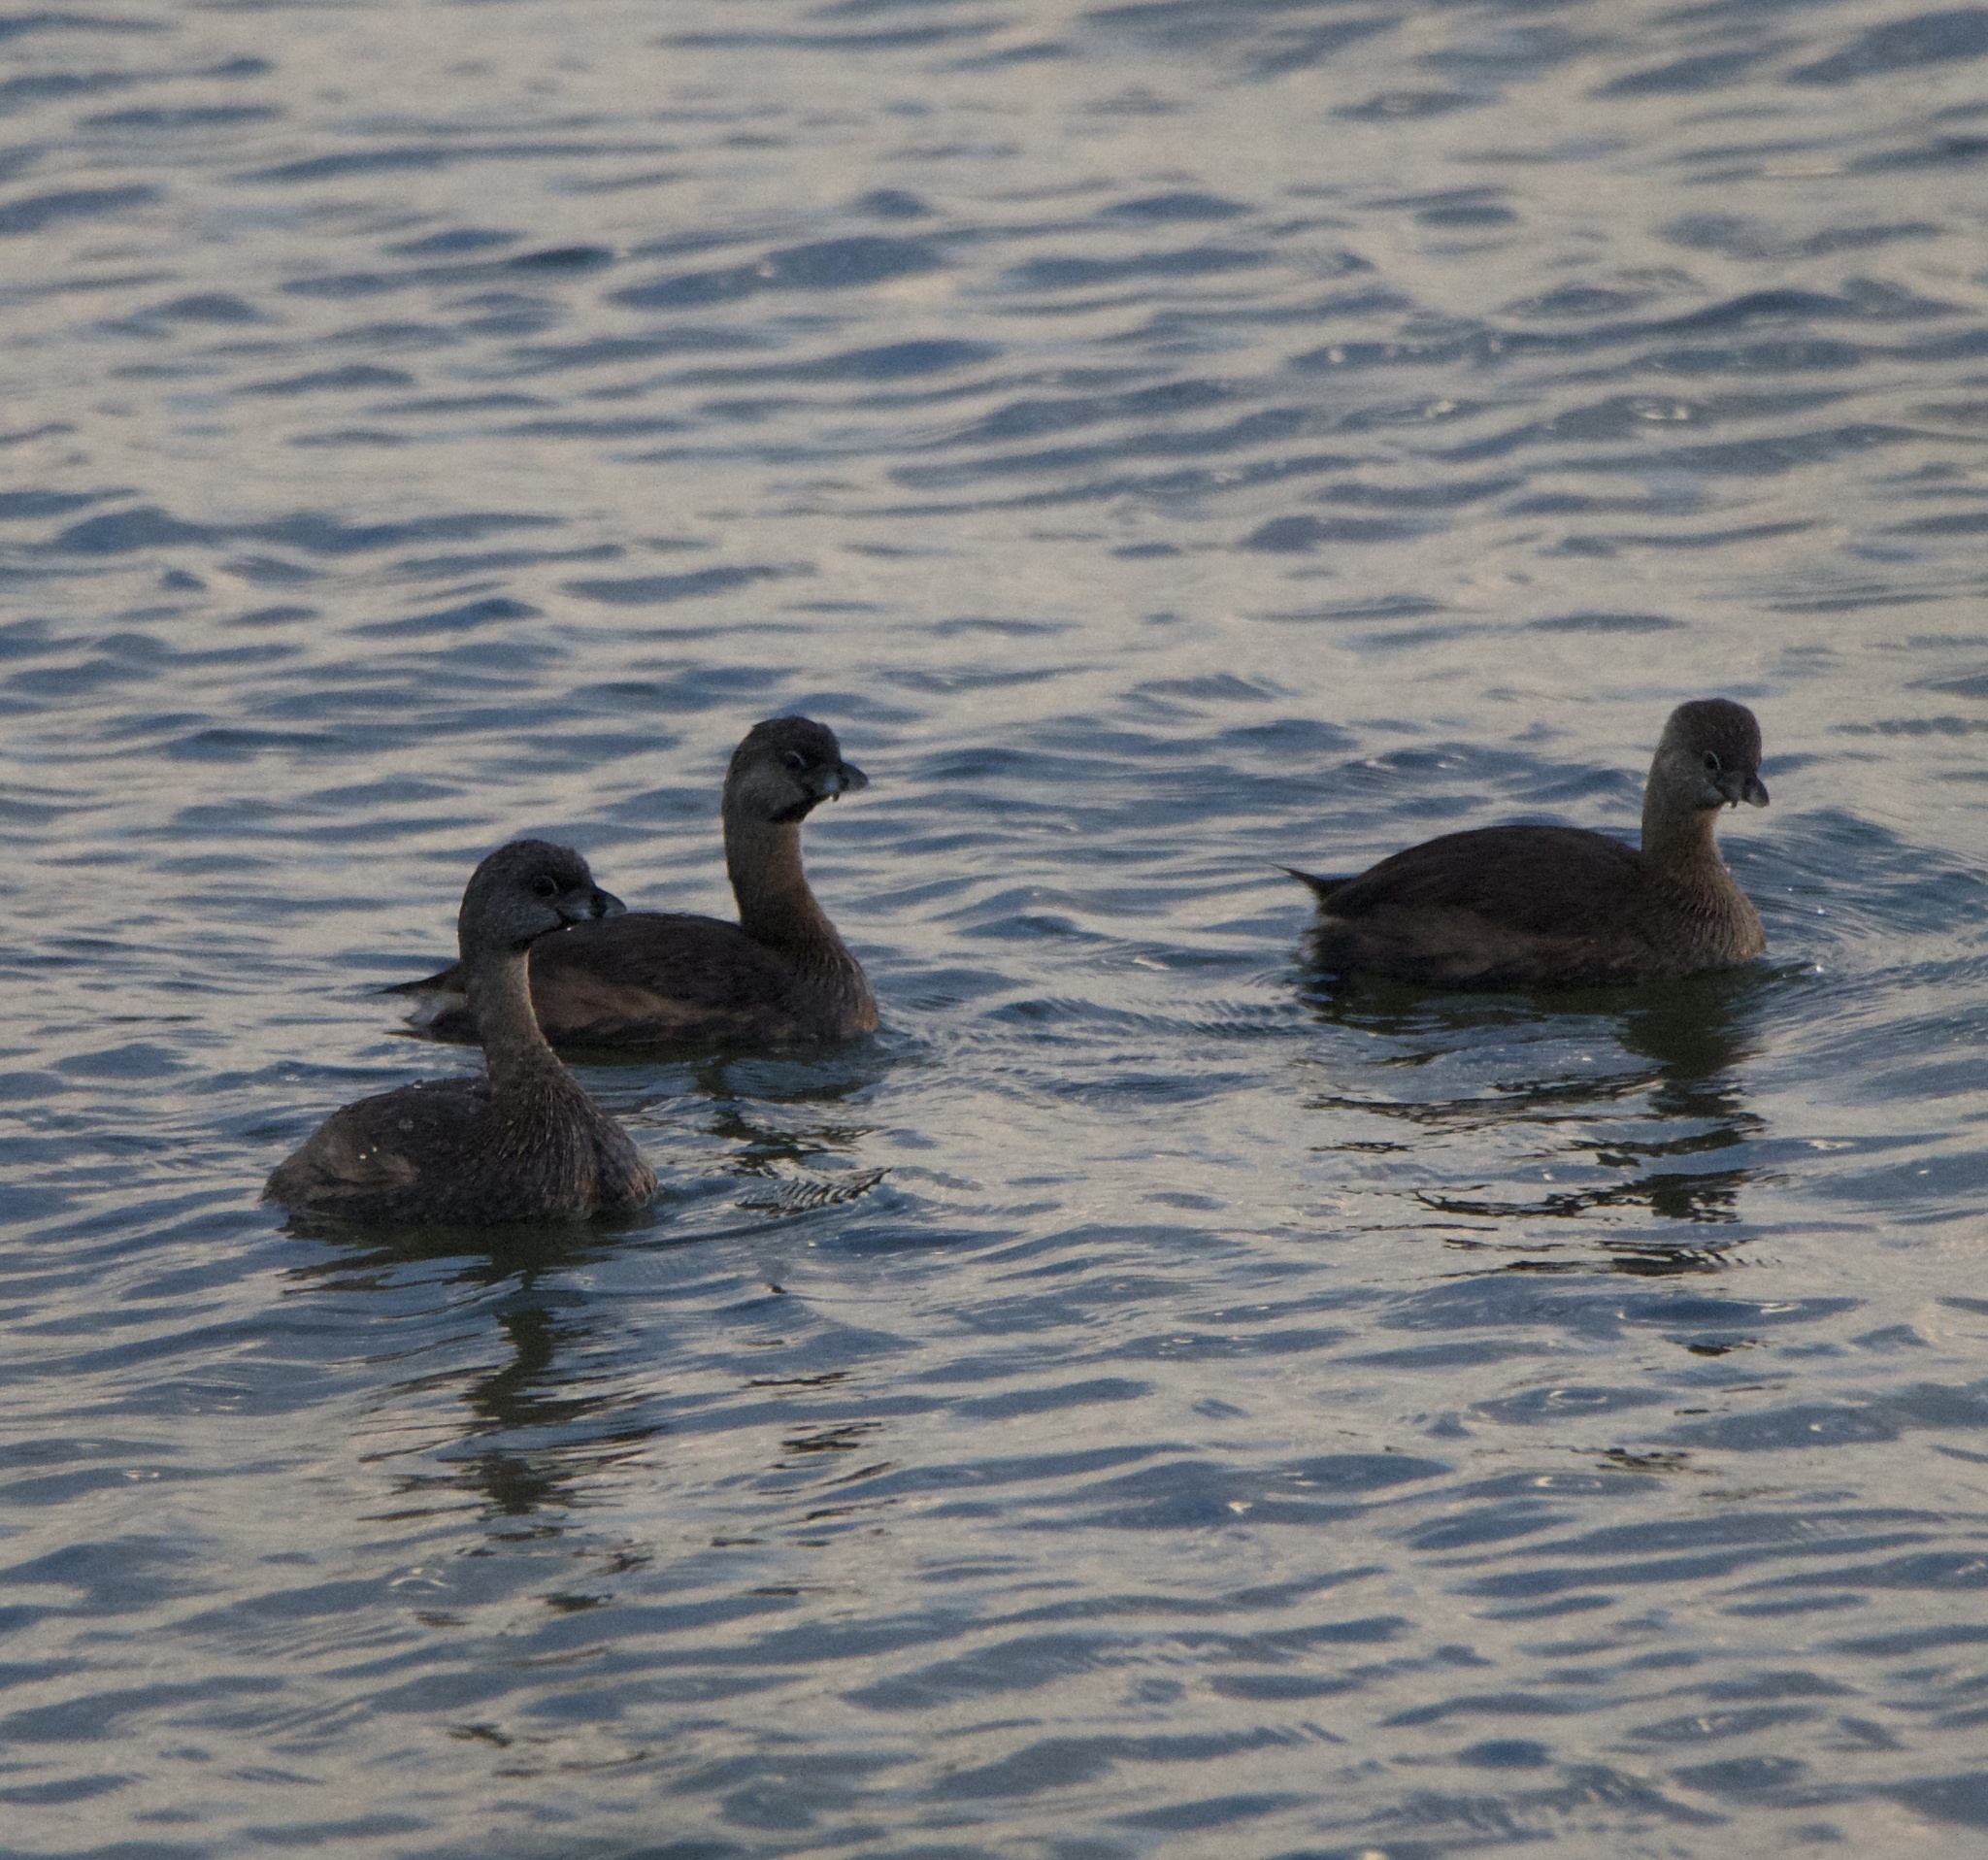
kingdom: Animalia
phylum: Chordata
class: Aves
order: Podicipediformes
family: Podicipedidae
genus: Podilymbus
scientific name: Podilymbus podiceps
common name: Pied-billed grebe
